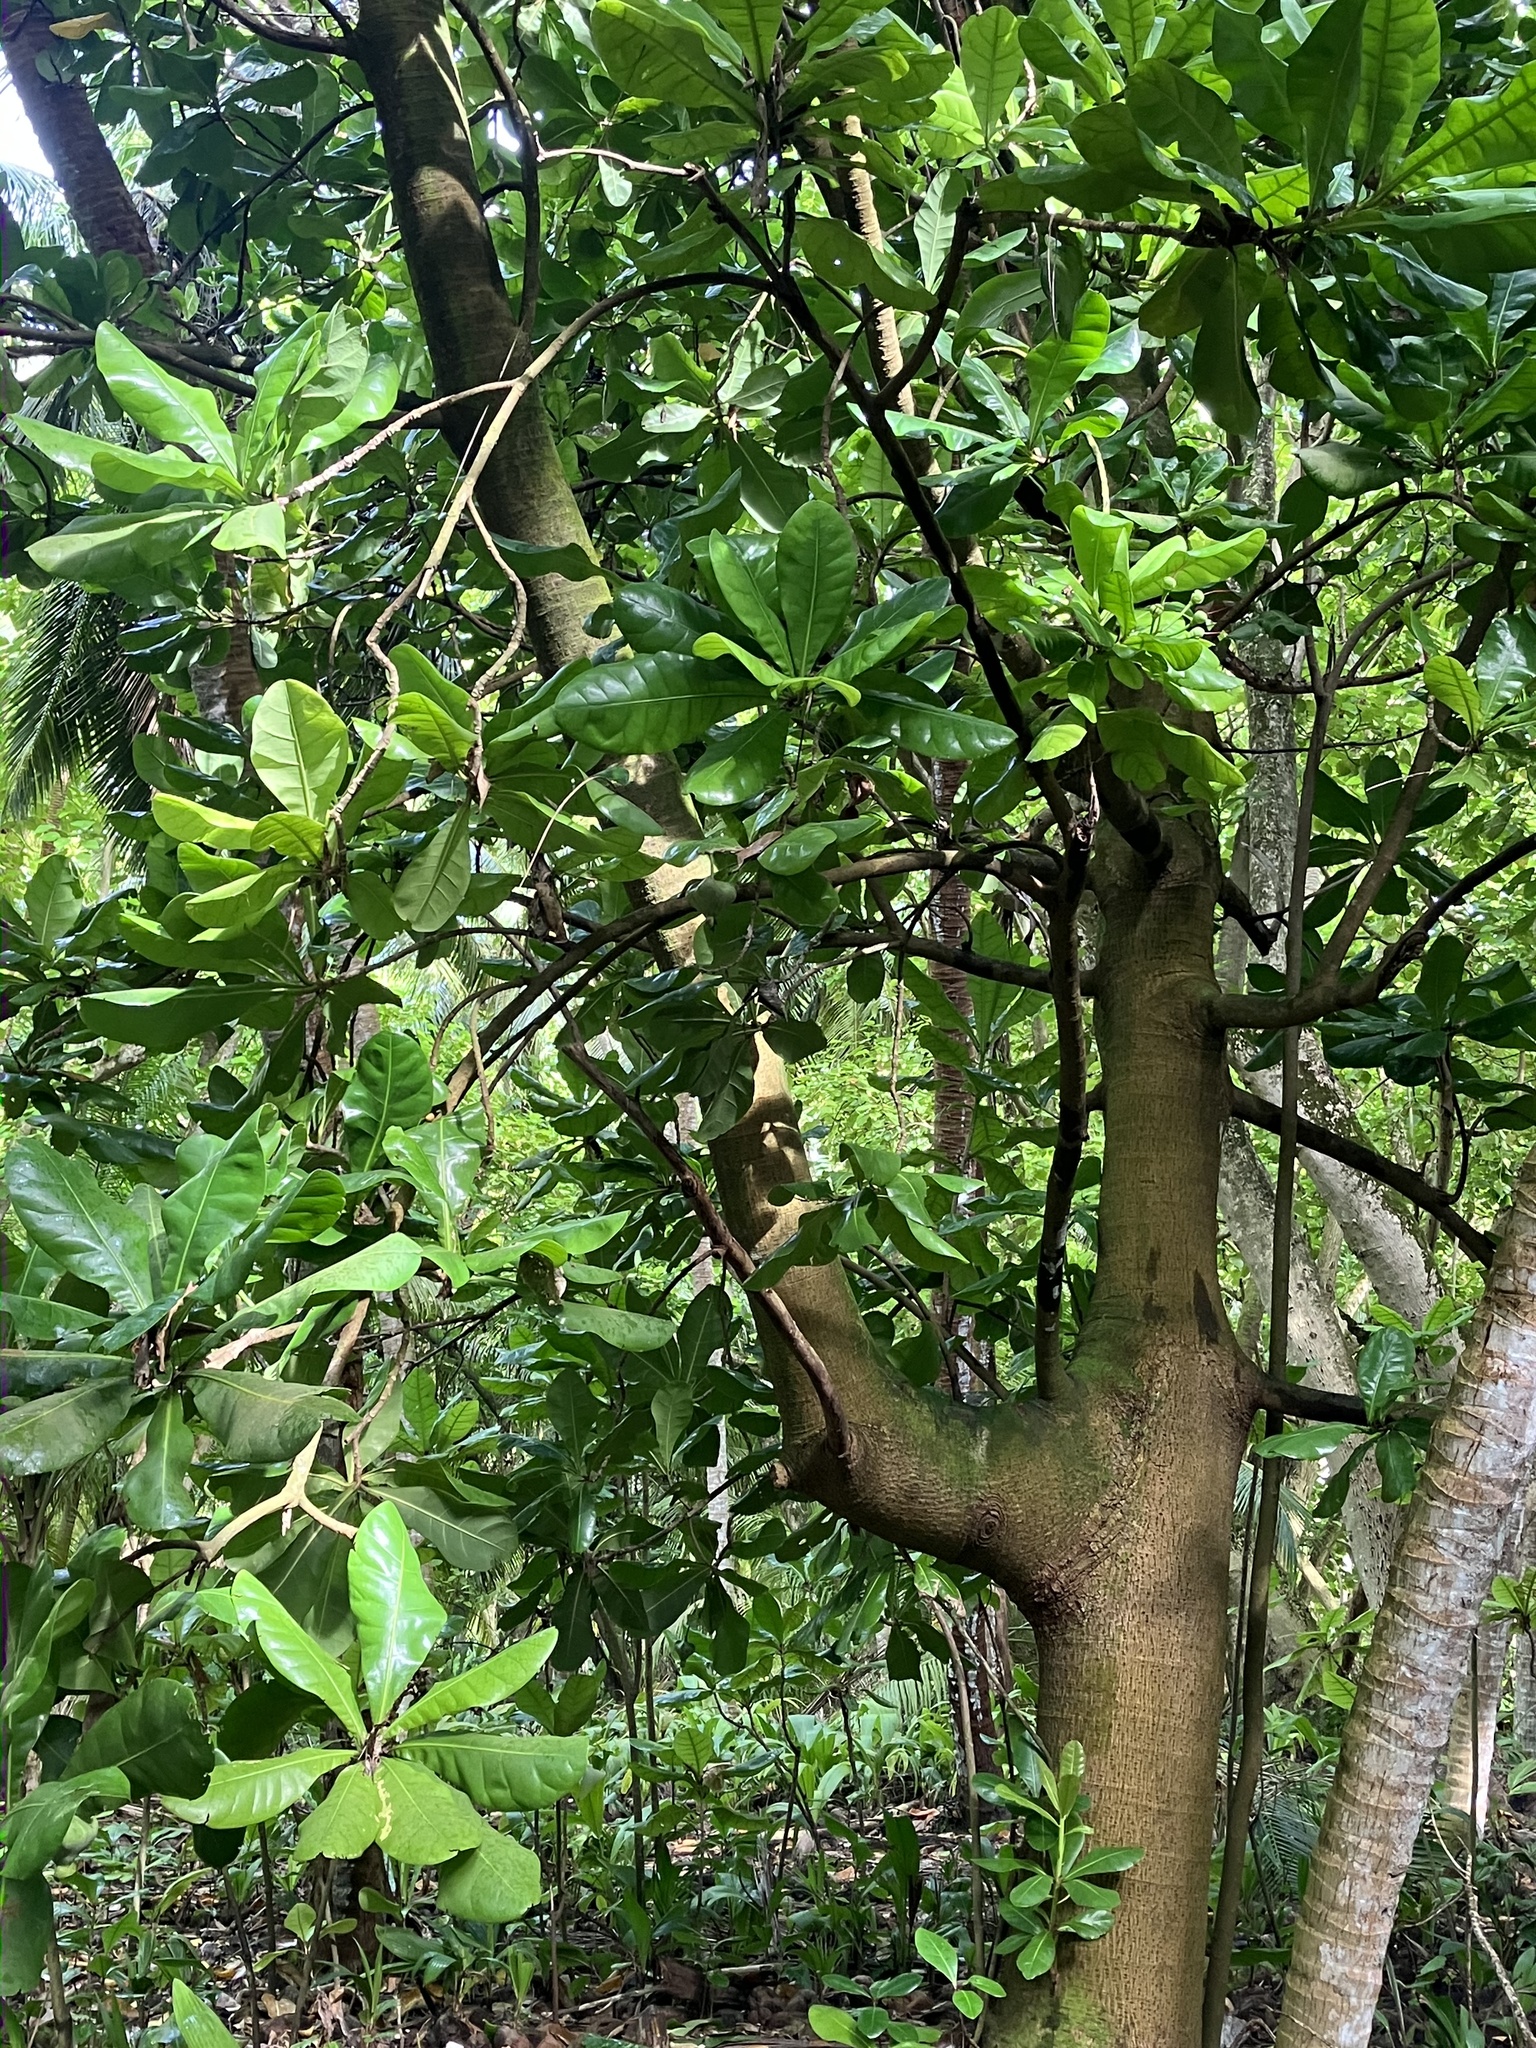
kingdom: Plantae
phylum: Tracheophyta
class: Magnoliopsida
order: Ericales
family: Lecythidaceae
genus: Barringtonia
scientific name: Barringtonia asiatica
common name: Mango-pine
